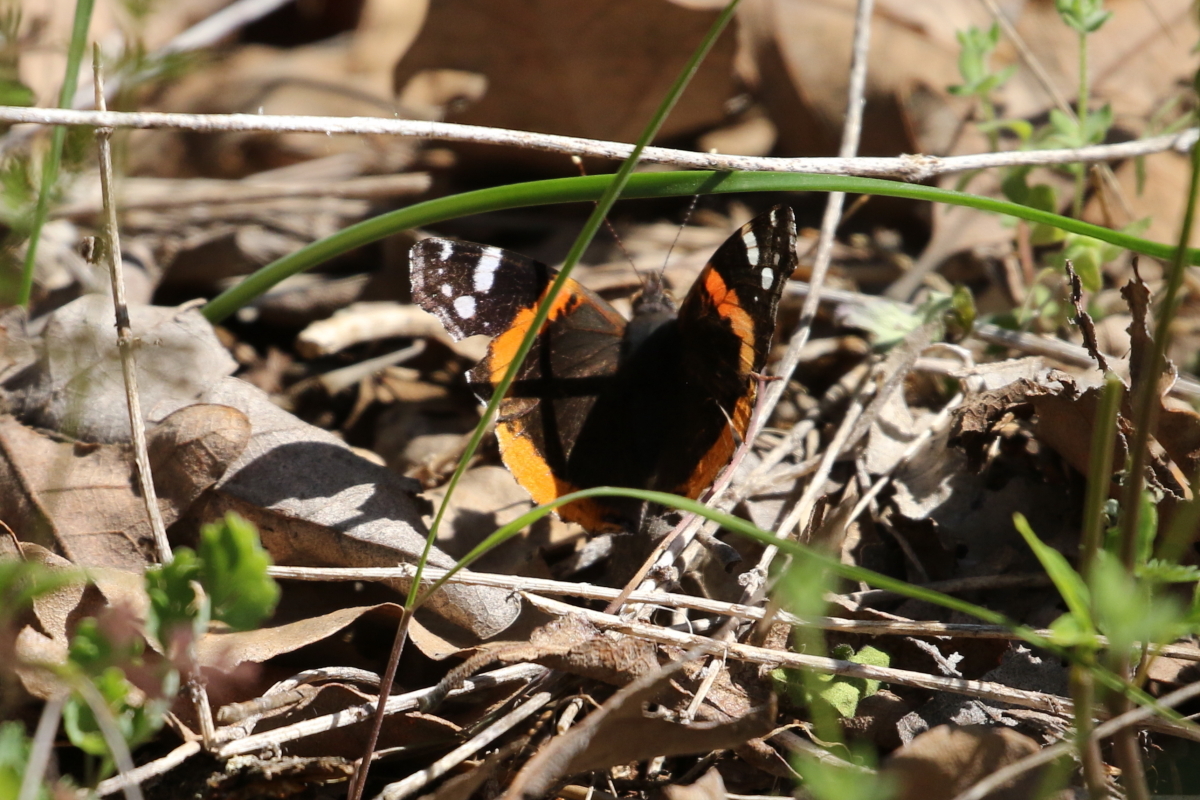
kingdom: Animalia
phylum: Arthropoda
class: Insecta
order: Lepidoptera
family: Nymphalidae
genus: Vanessa
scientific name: Vanessa atalanta
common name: Red admiral
